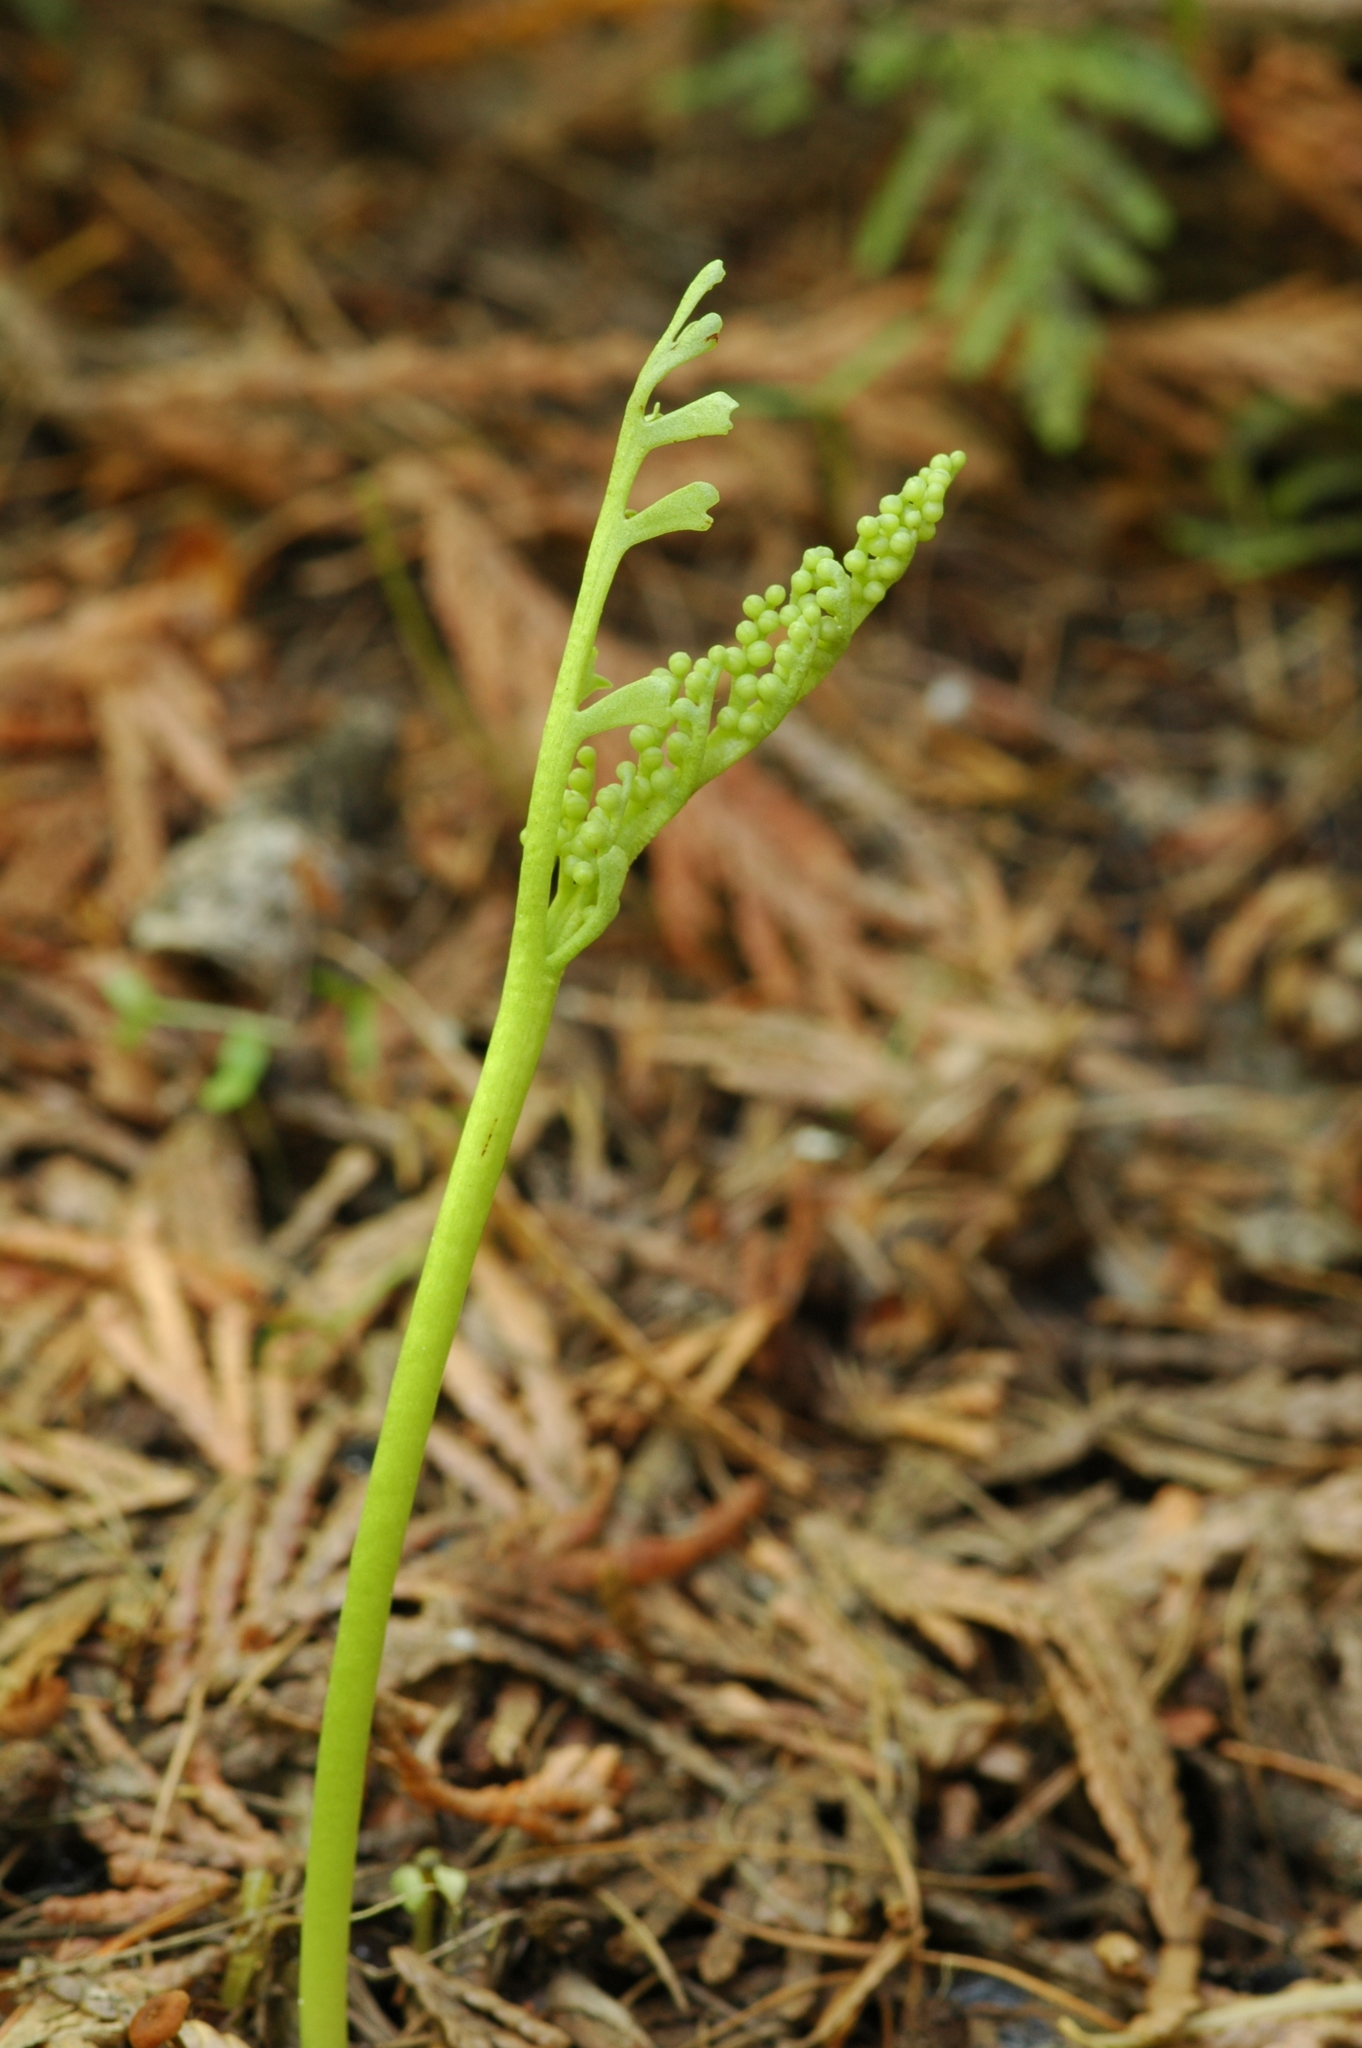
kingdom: Plantae
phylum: Tracheophyta
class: Polypodiopsida
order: Ophioglossales
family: Ophioglossaceae
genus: Botrychium
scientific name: Botrychium lineare
